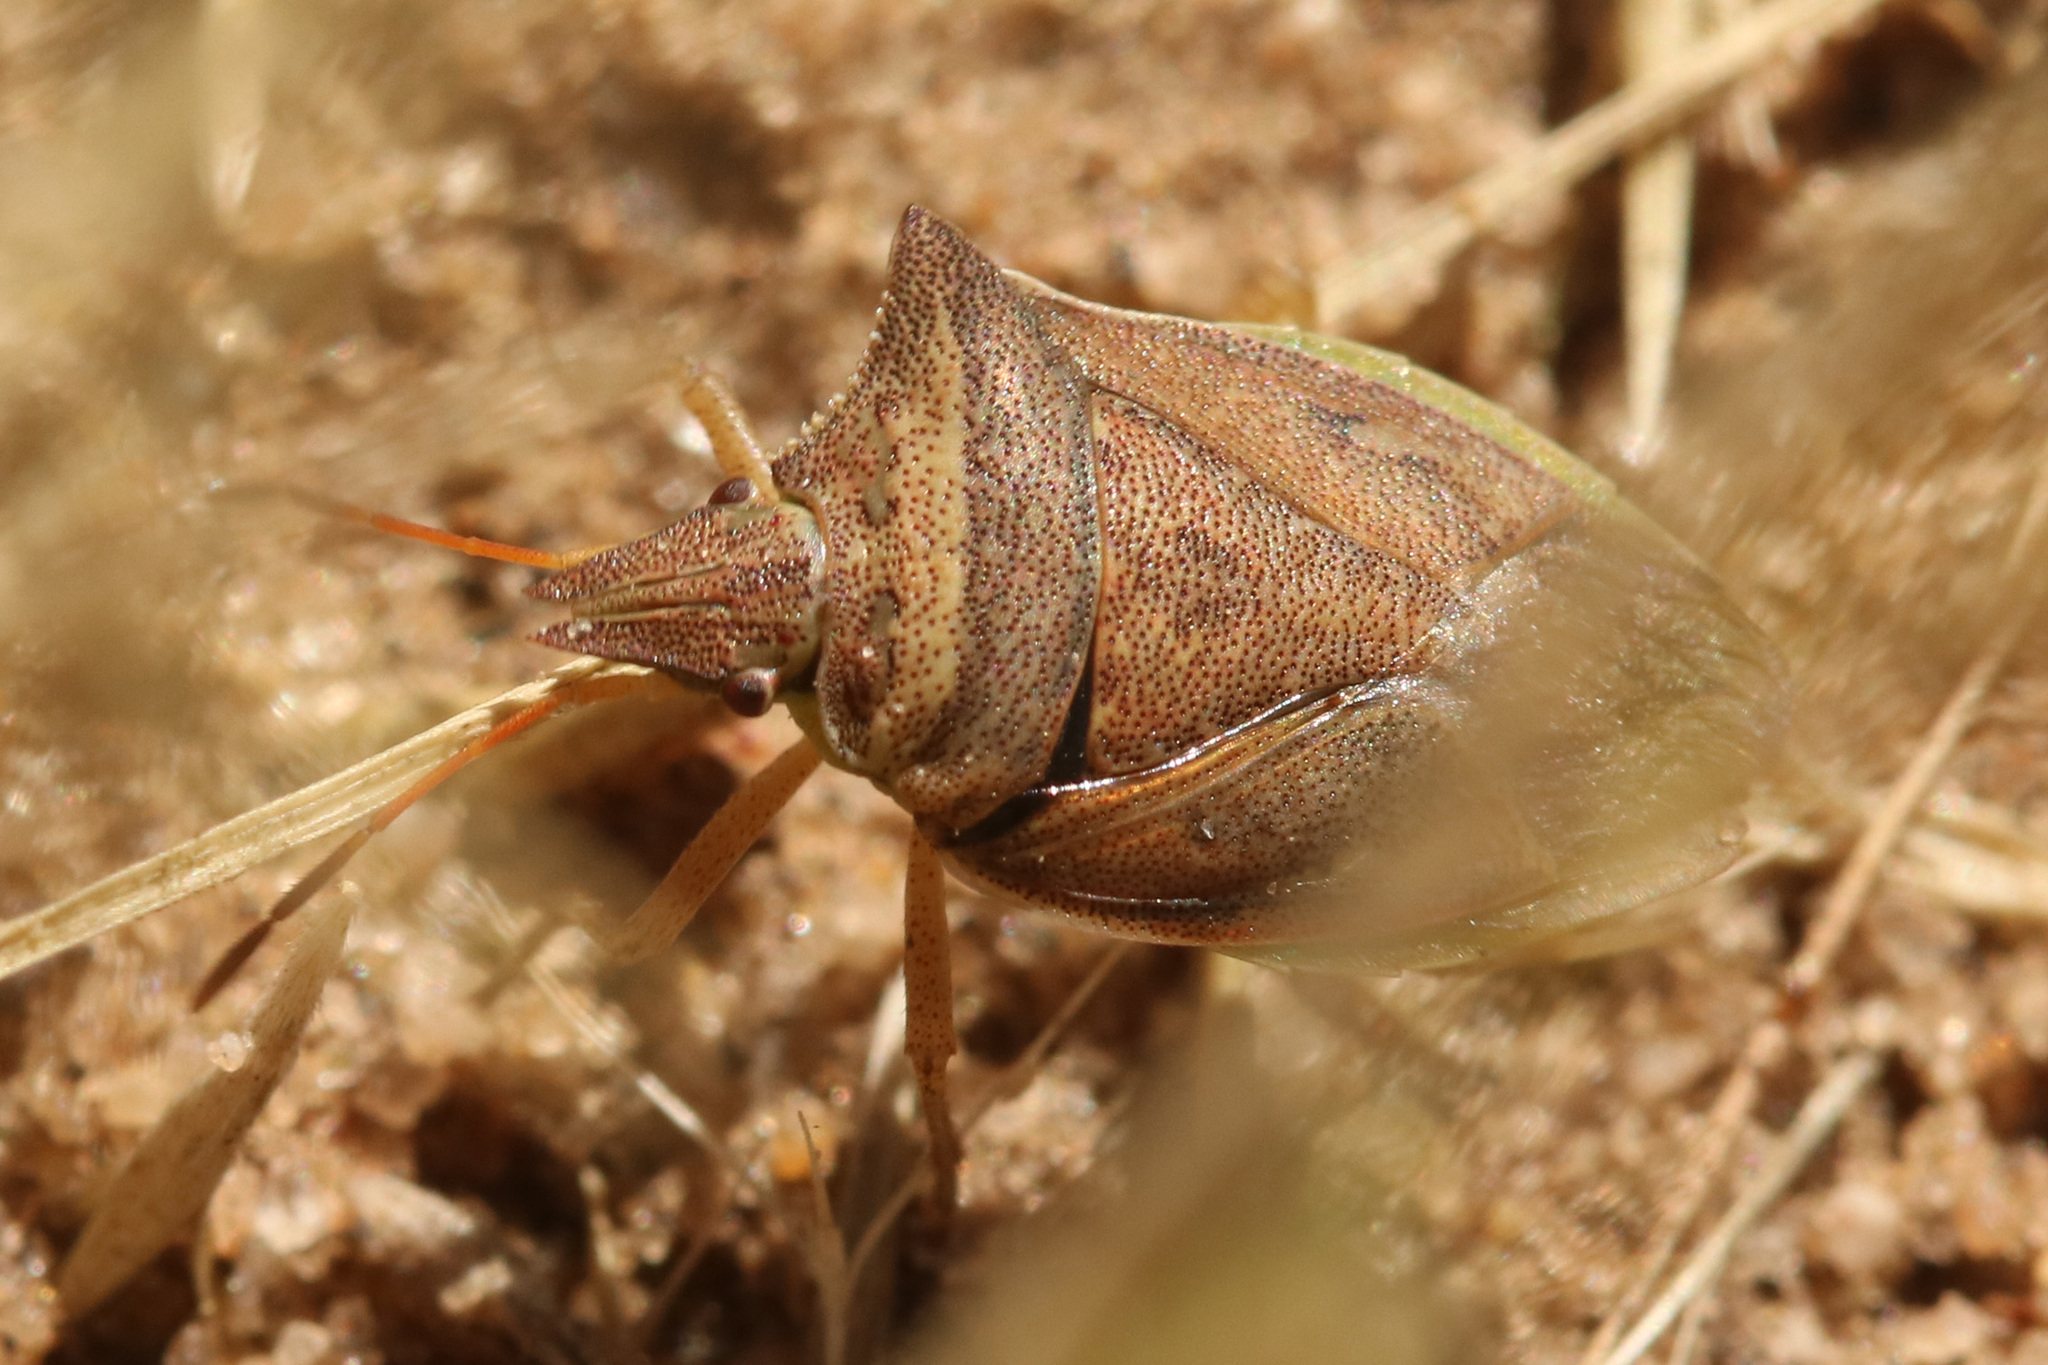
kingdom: Animalia
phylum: Arthropoda
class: Insecta
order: Hemiptera
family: Pentatomidae
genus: Diceraeus
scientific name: Diceraeus furcatus
